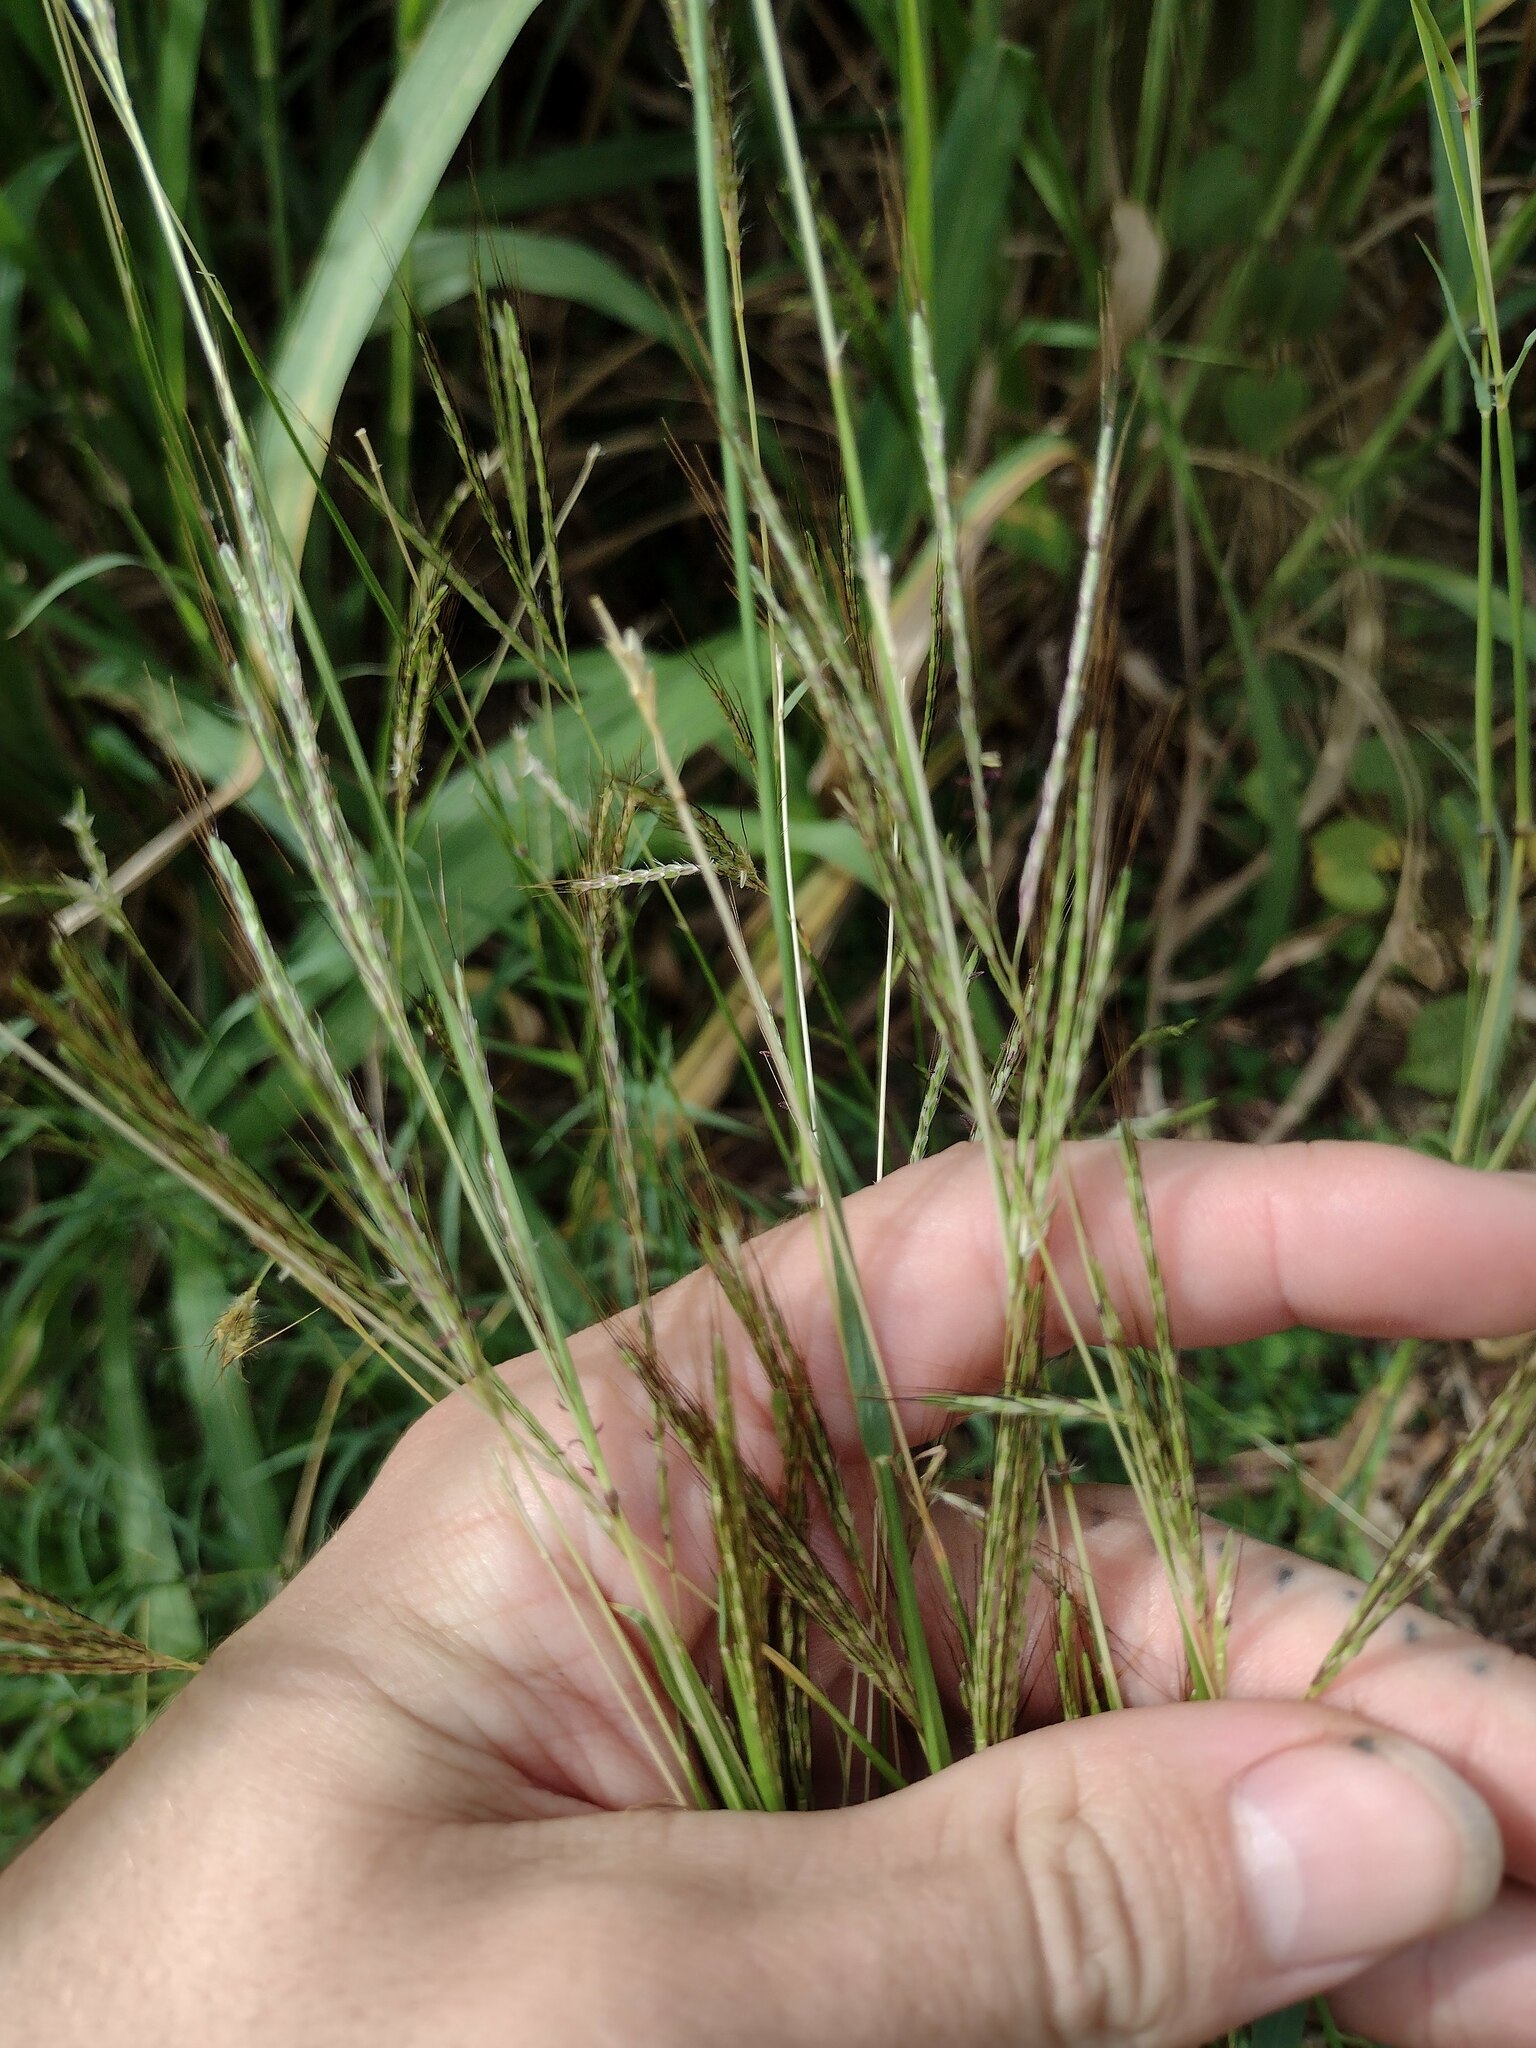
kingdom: Plantae
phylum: Tracheophyta
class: Liliopsida
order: Poales
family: Poaceae
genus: Bothriochloa
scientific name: Bothriochloa pertusa
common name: Pitted beardgrass
